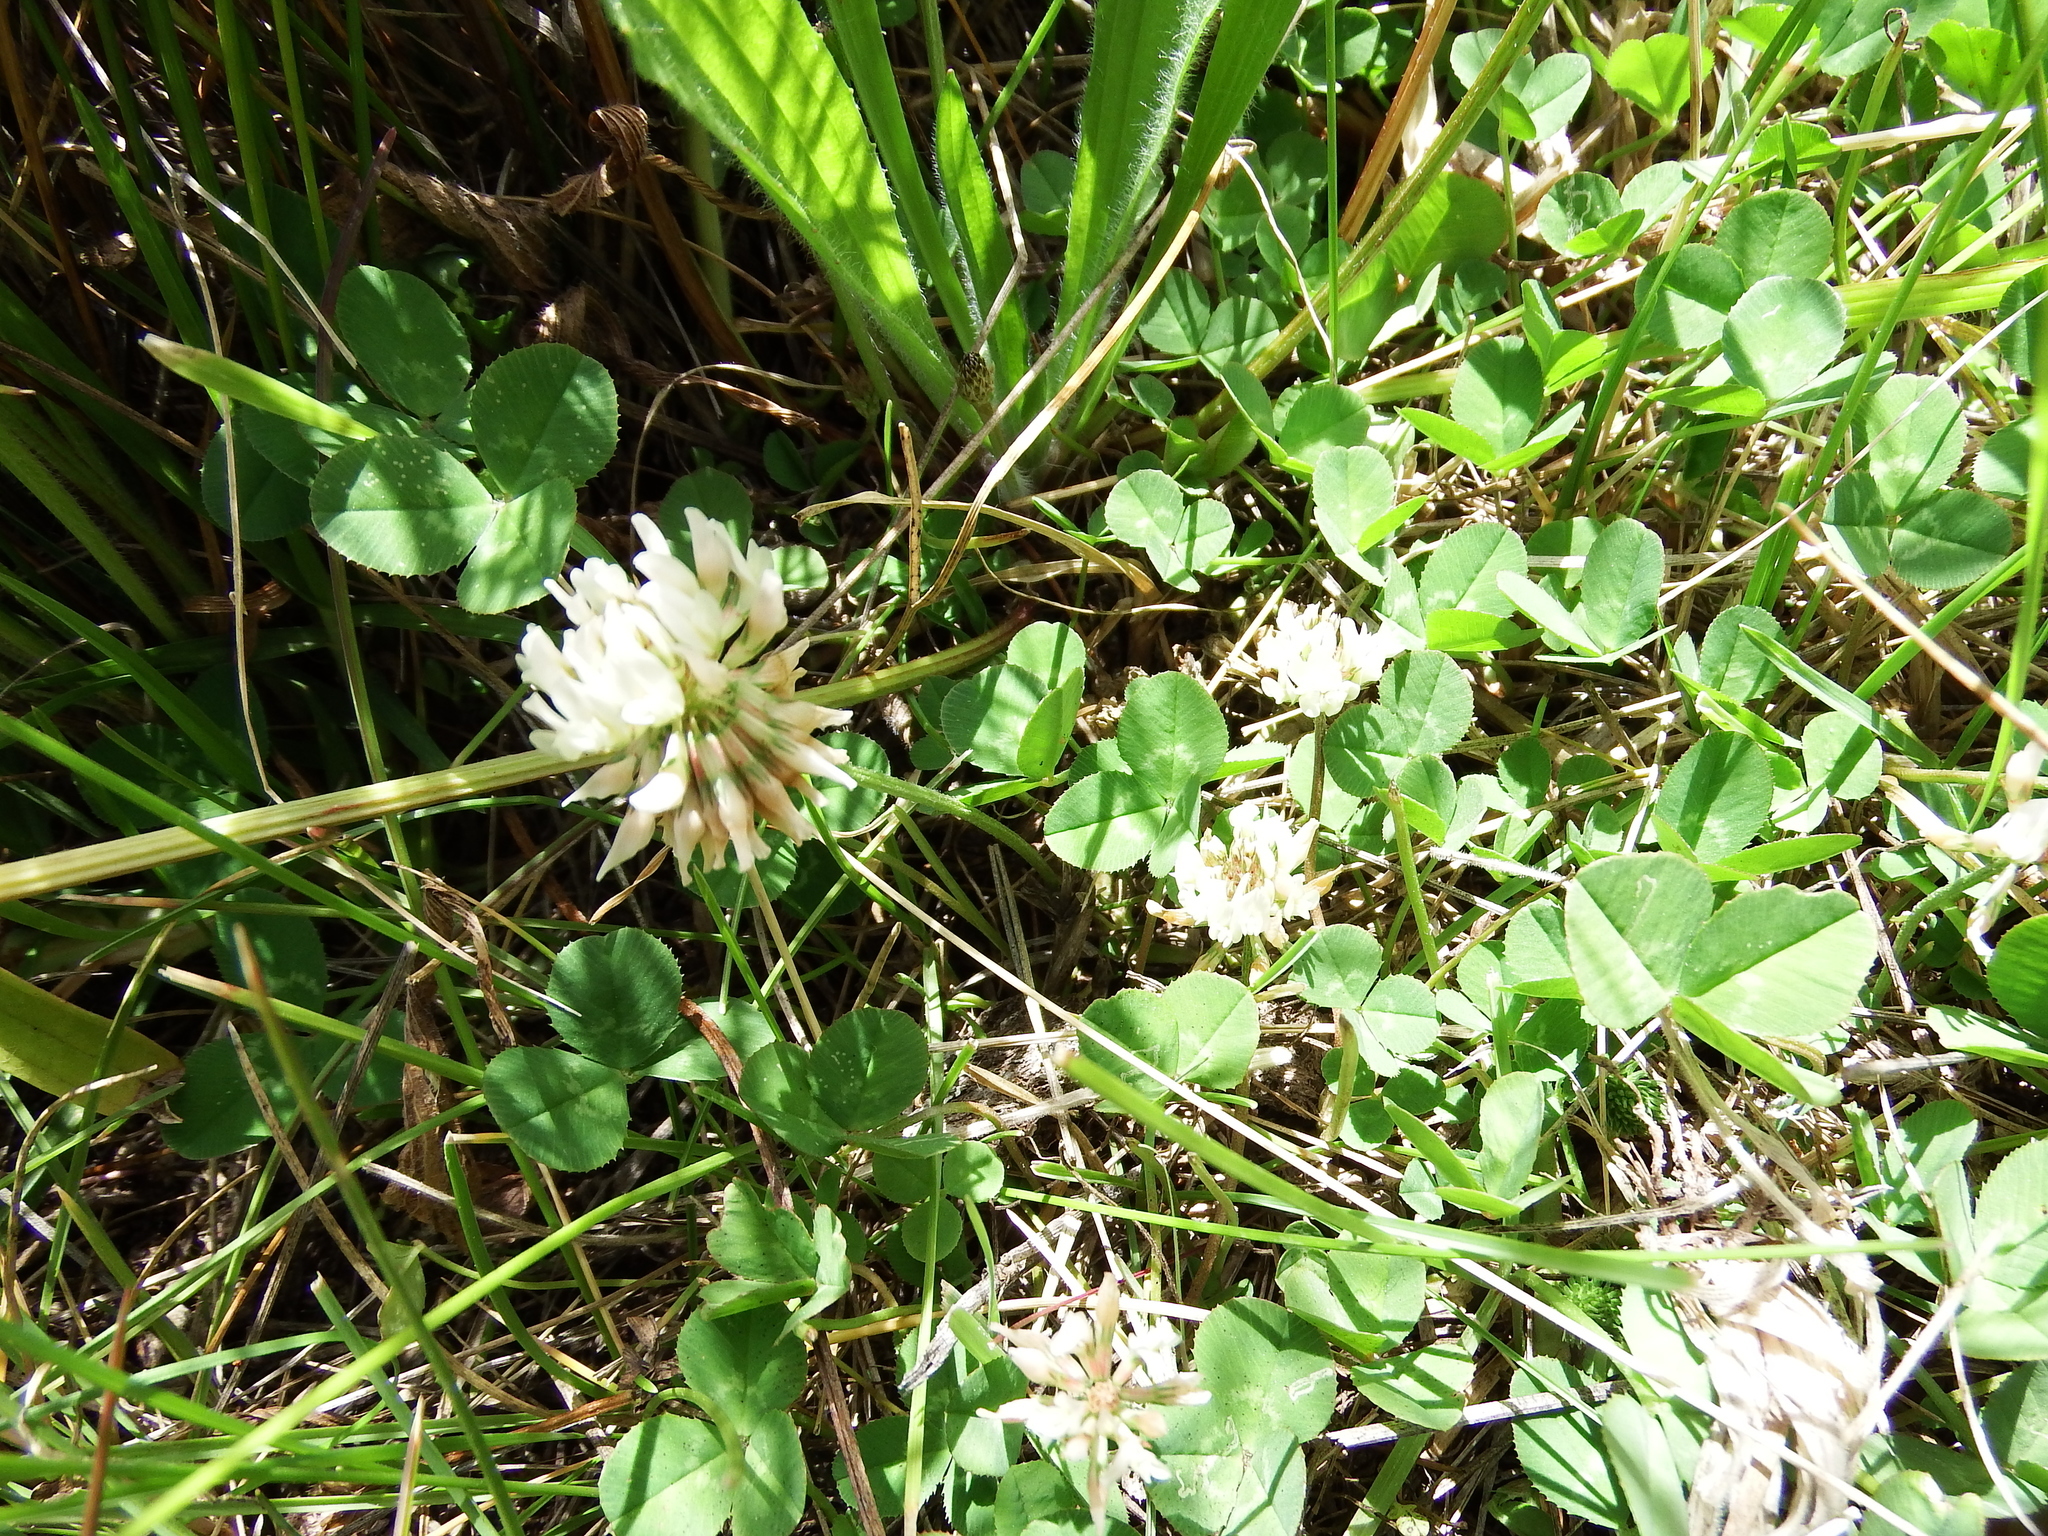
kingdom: Plantae
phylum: Tracheophyta
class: Magnoliopsida
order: Fabales
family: Fabaceae
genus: Trifolium
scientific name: Trifolium repens
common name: White clover
